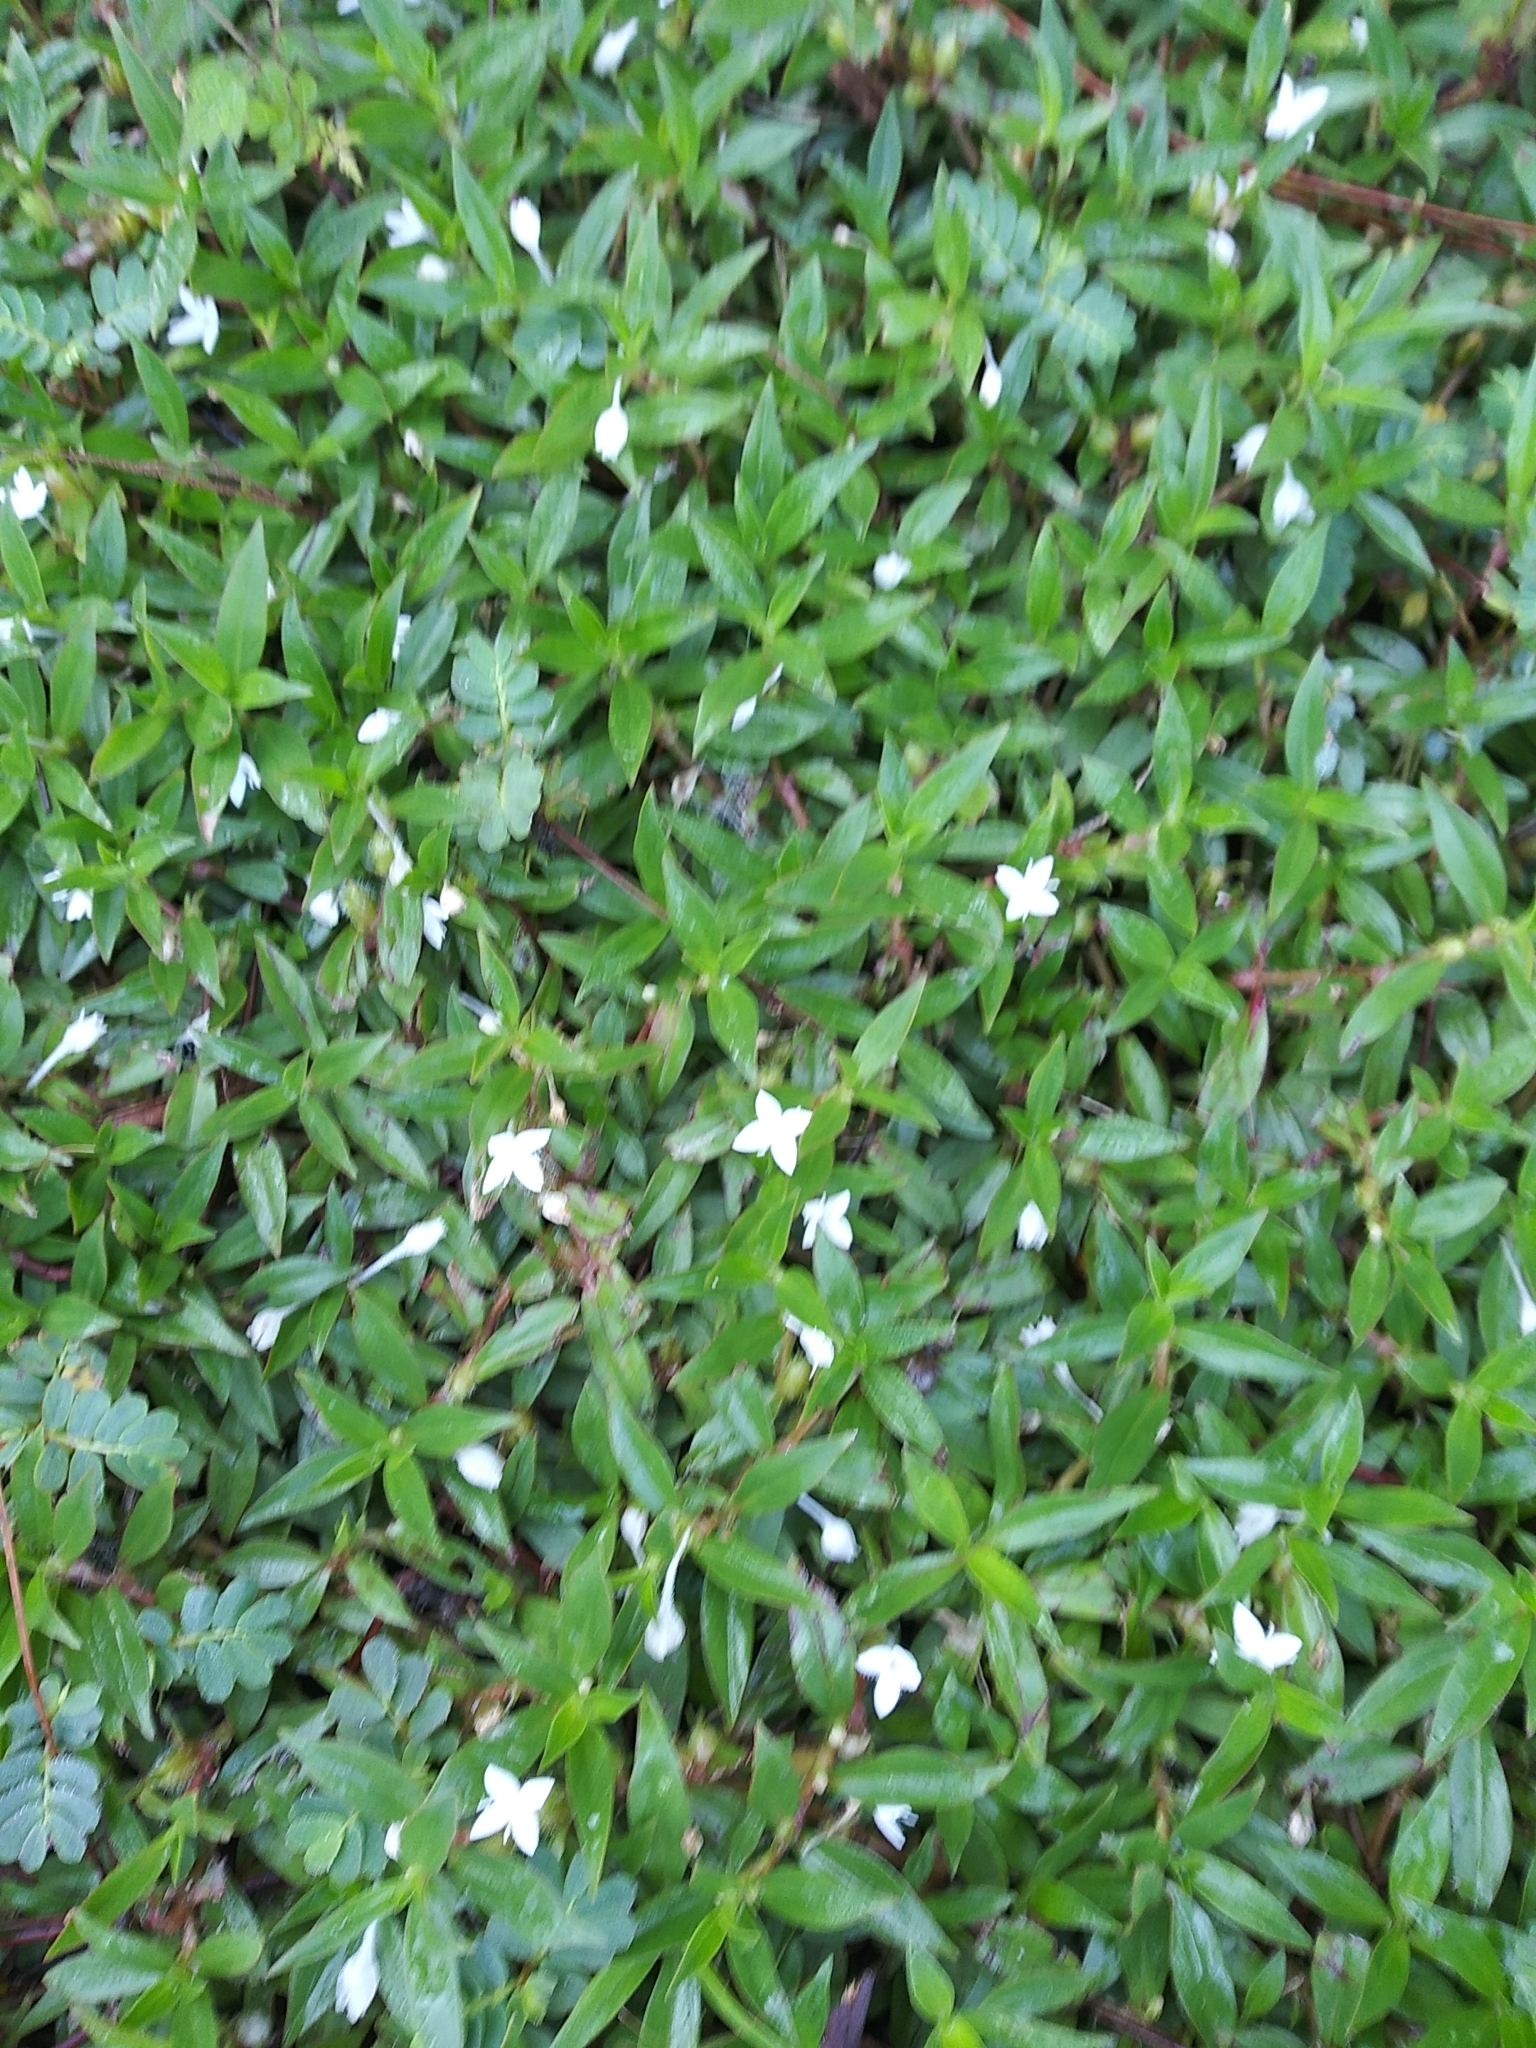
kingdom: Plantae
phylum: Tracheophyta
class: Magnoliopsida
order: Gentianales
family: Rubiaceae
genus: Diodia
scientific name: Diodia virginiana
